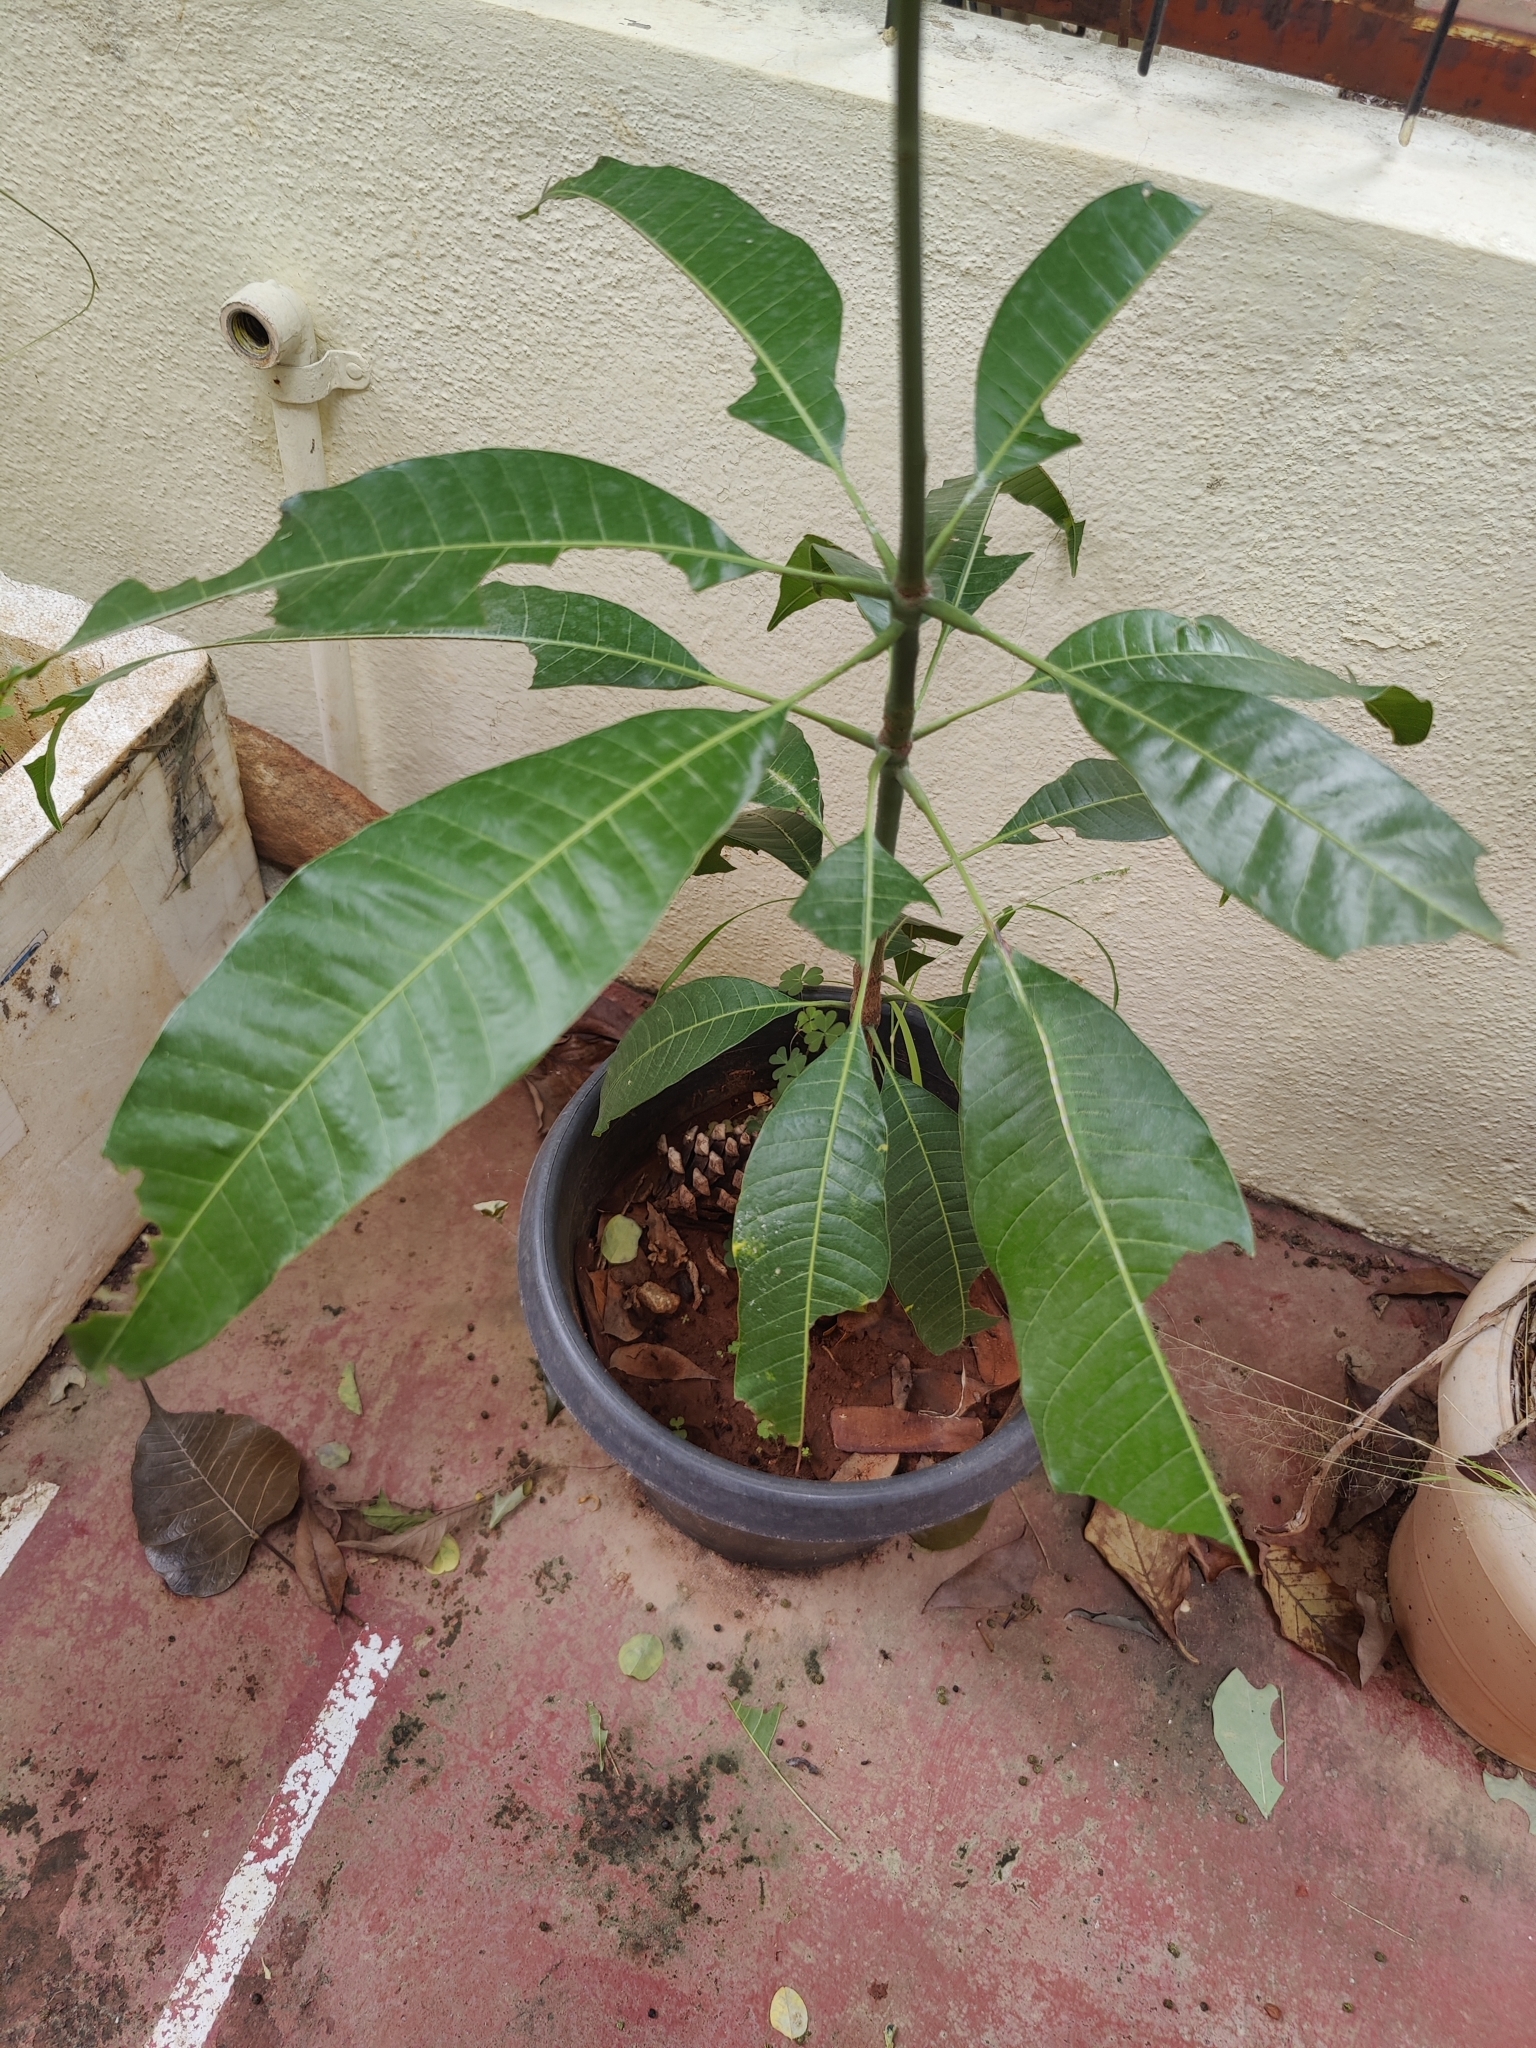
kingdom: Animalia
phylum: Arthropoda
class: Insecta
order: Lepidoptera
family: Nymphalidae
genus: Euthalia
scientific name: Euthalia aconthea
